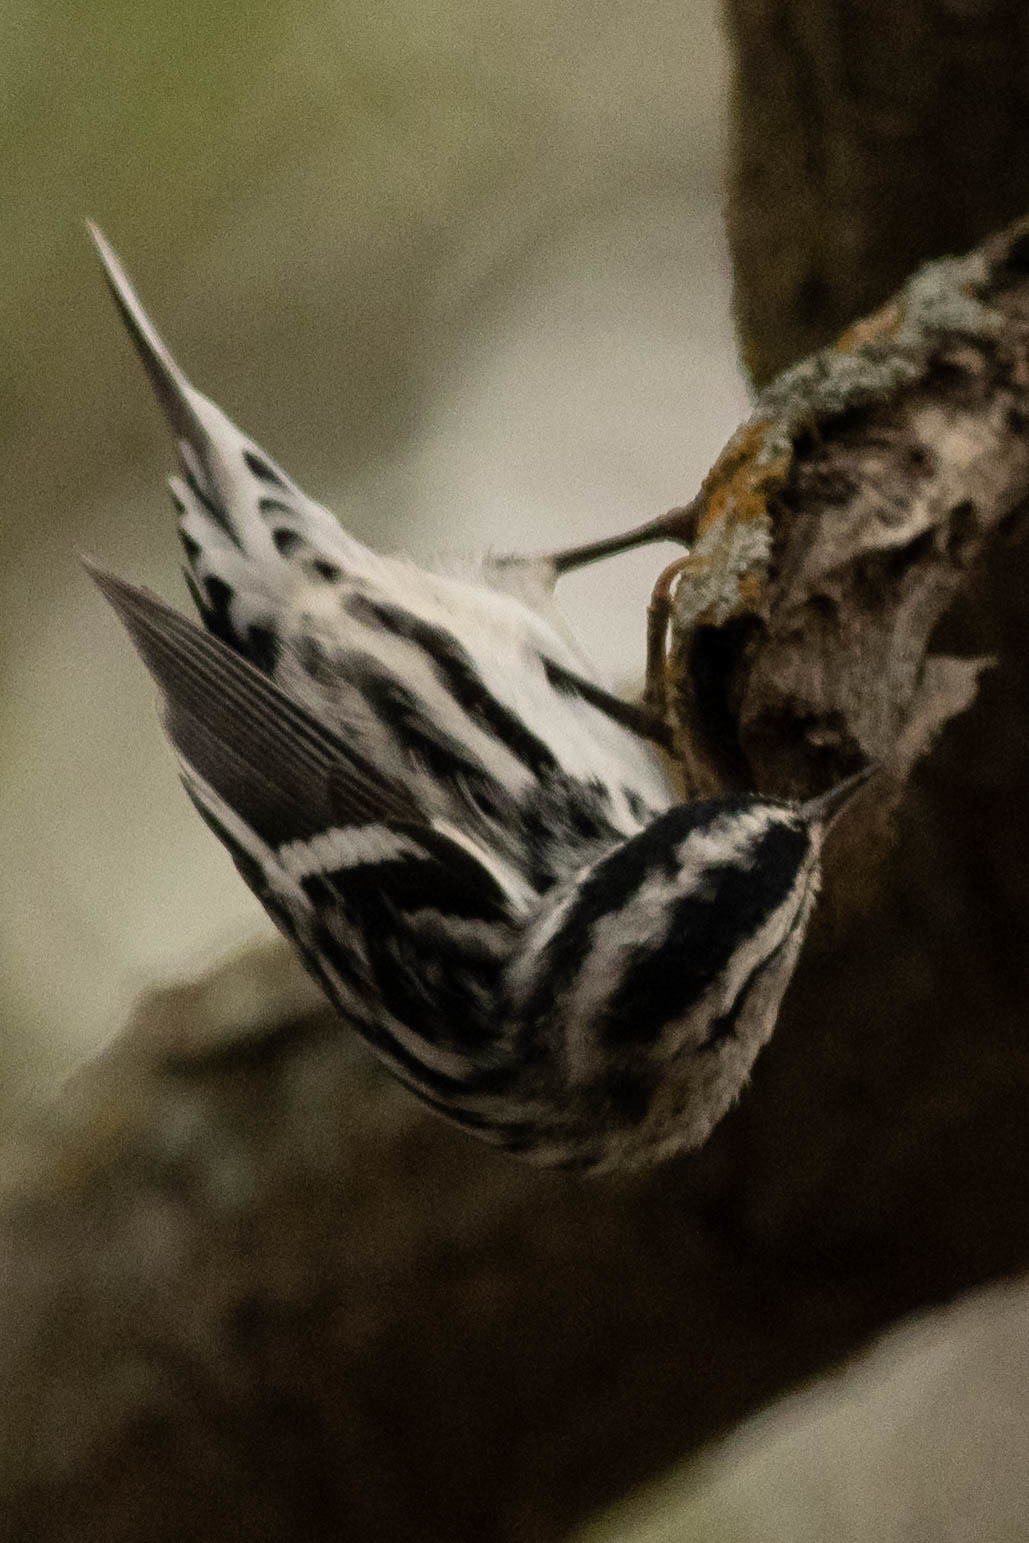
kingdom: Animalia
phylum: Chordata
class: Aves
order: Passeriformes
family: Parulidae
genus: Mniotilta
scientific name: Mniotilta varia
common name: Black-and-white warbler
